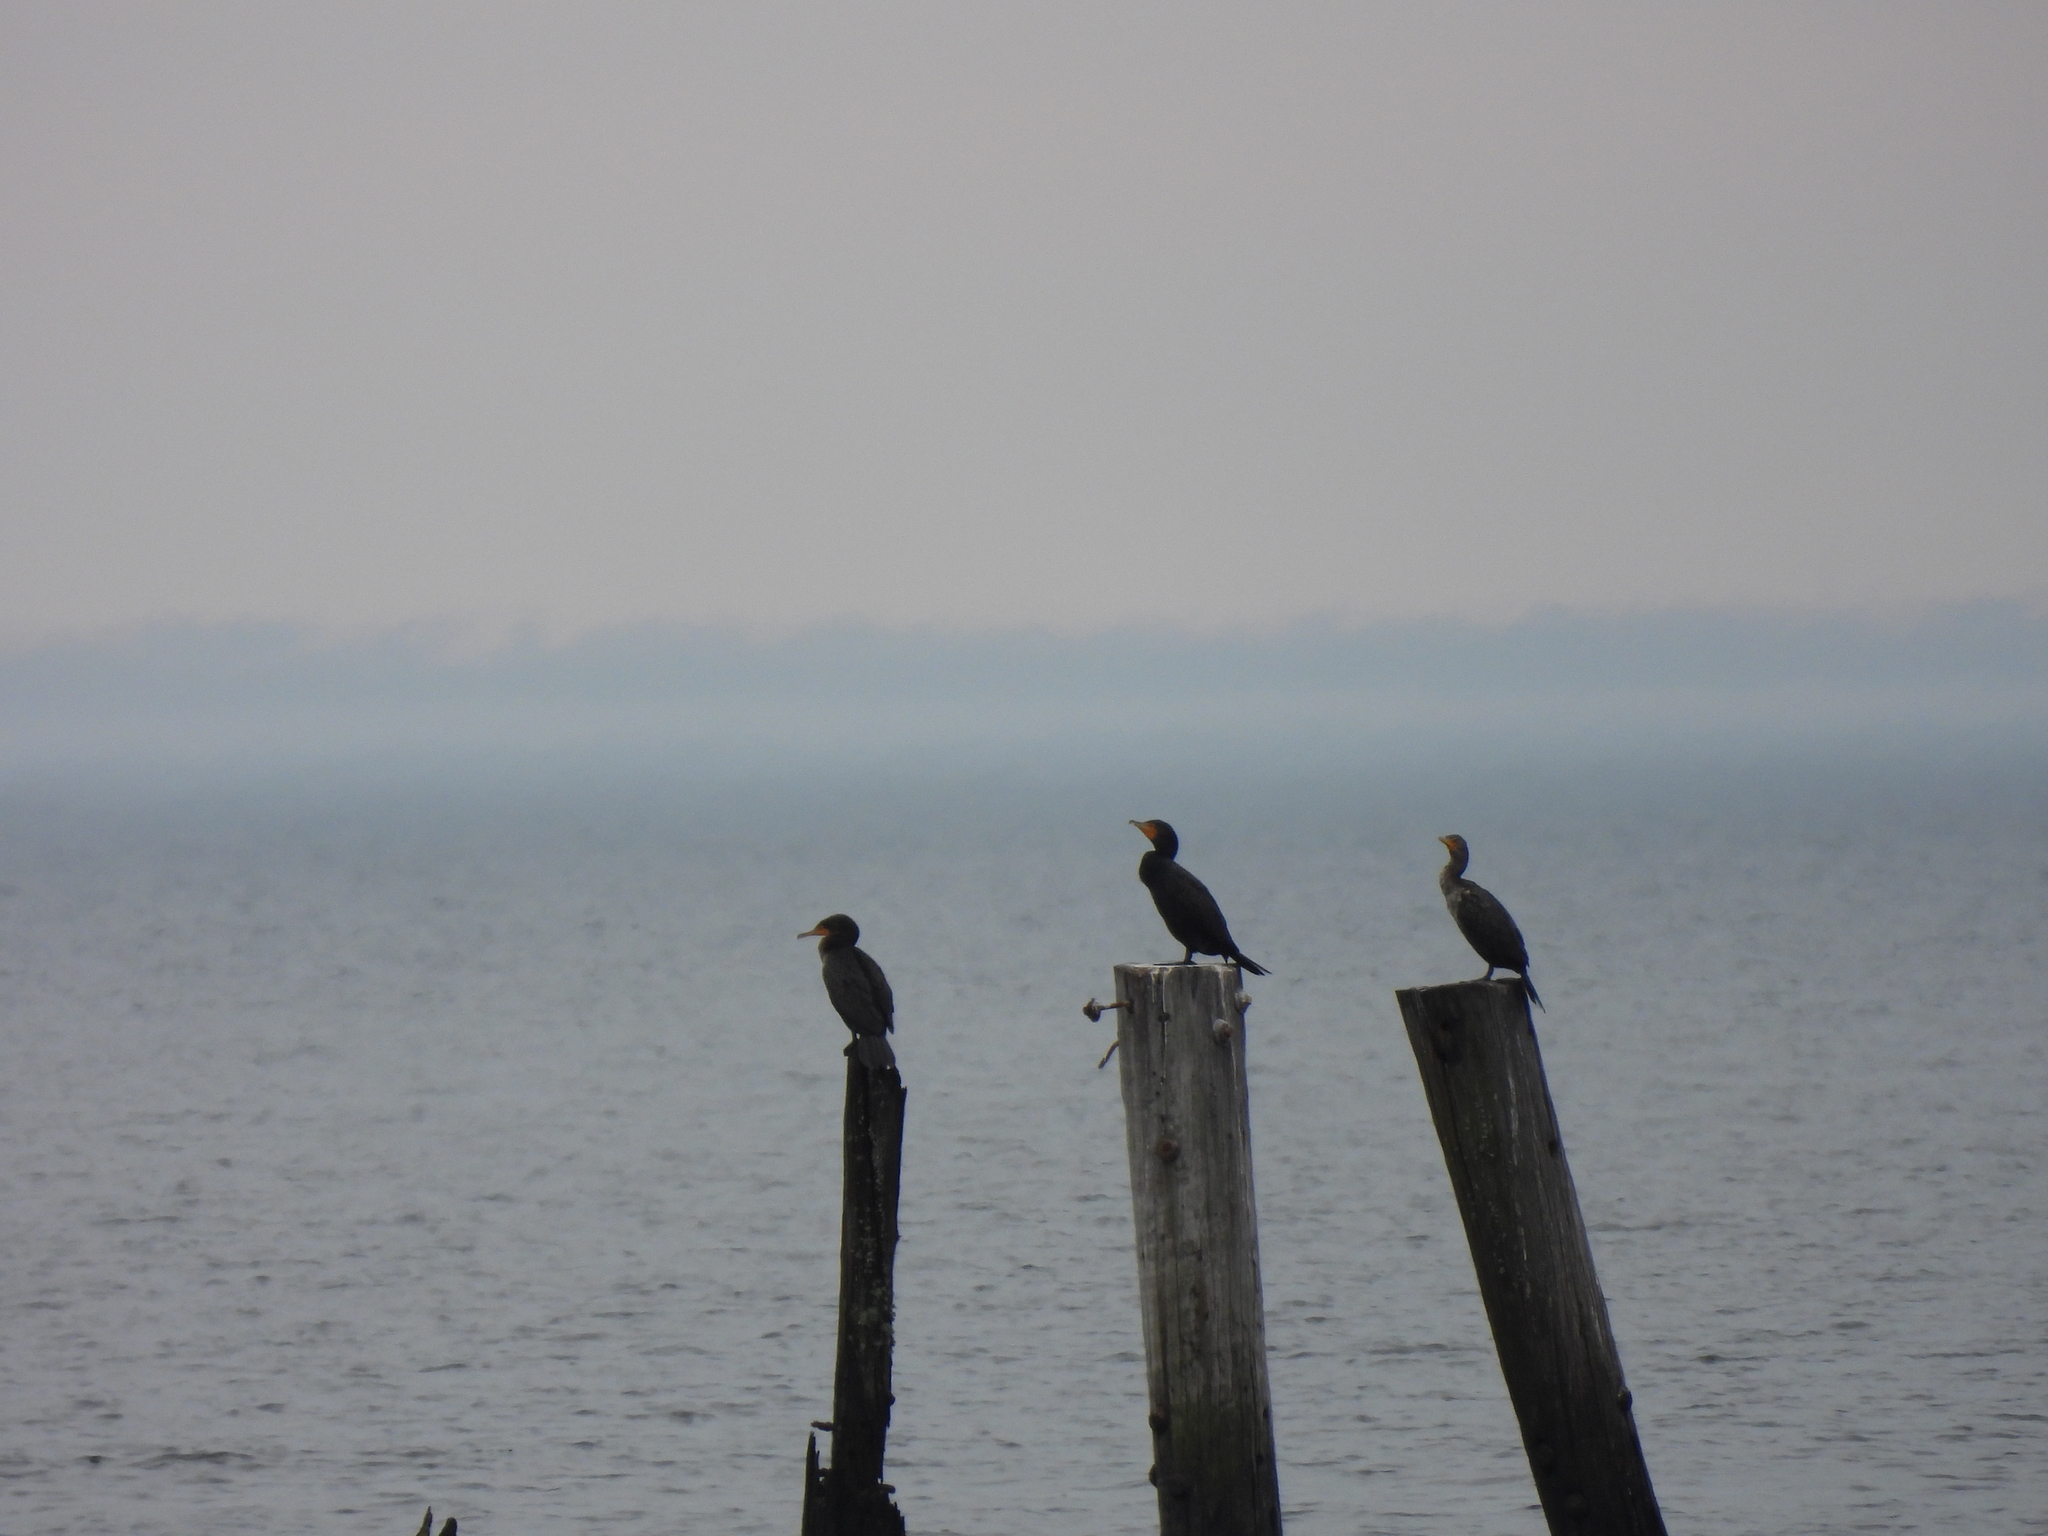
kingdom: Animalia
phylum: Chordata
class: Aves
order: Suliformes
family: Phalacrocoracidae
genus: Phalacrocorax
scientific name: Phalacrocorax auritus
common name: Double-crested cormorant
